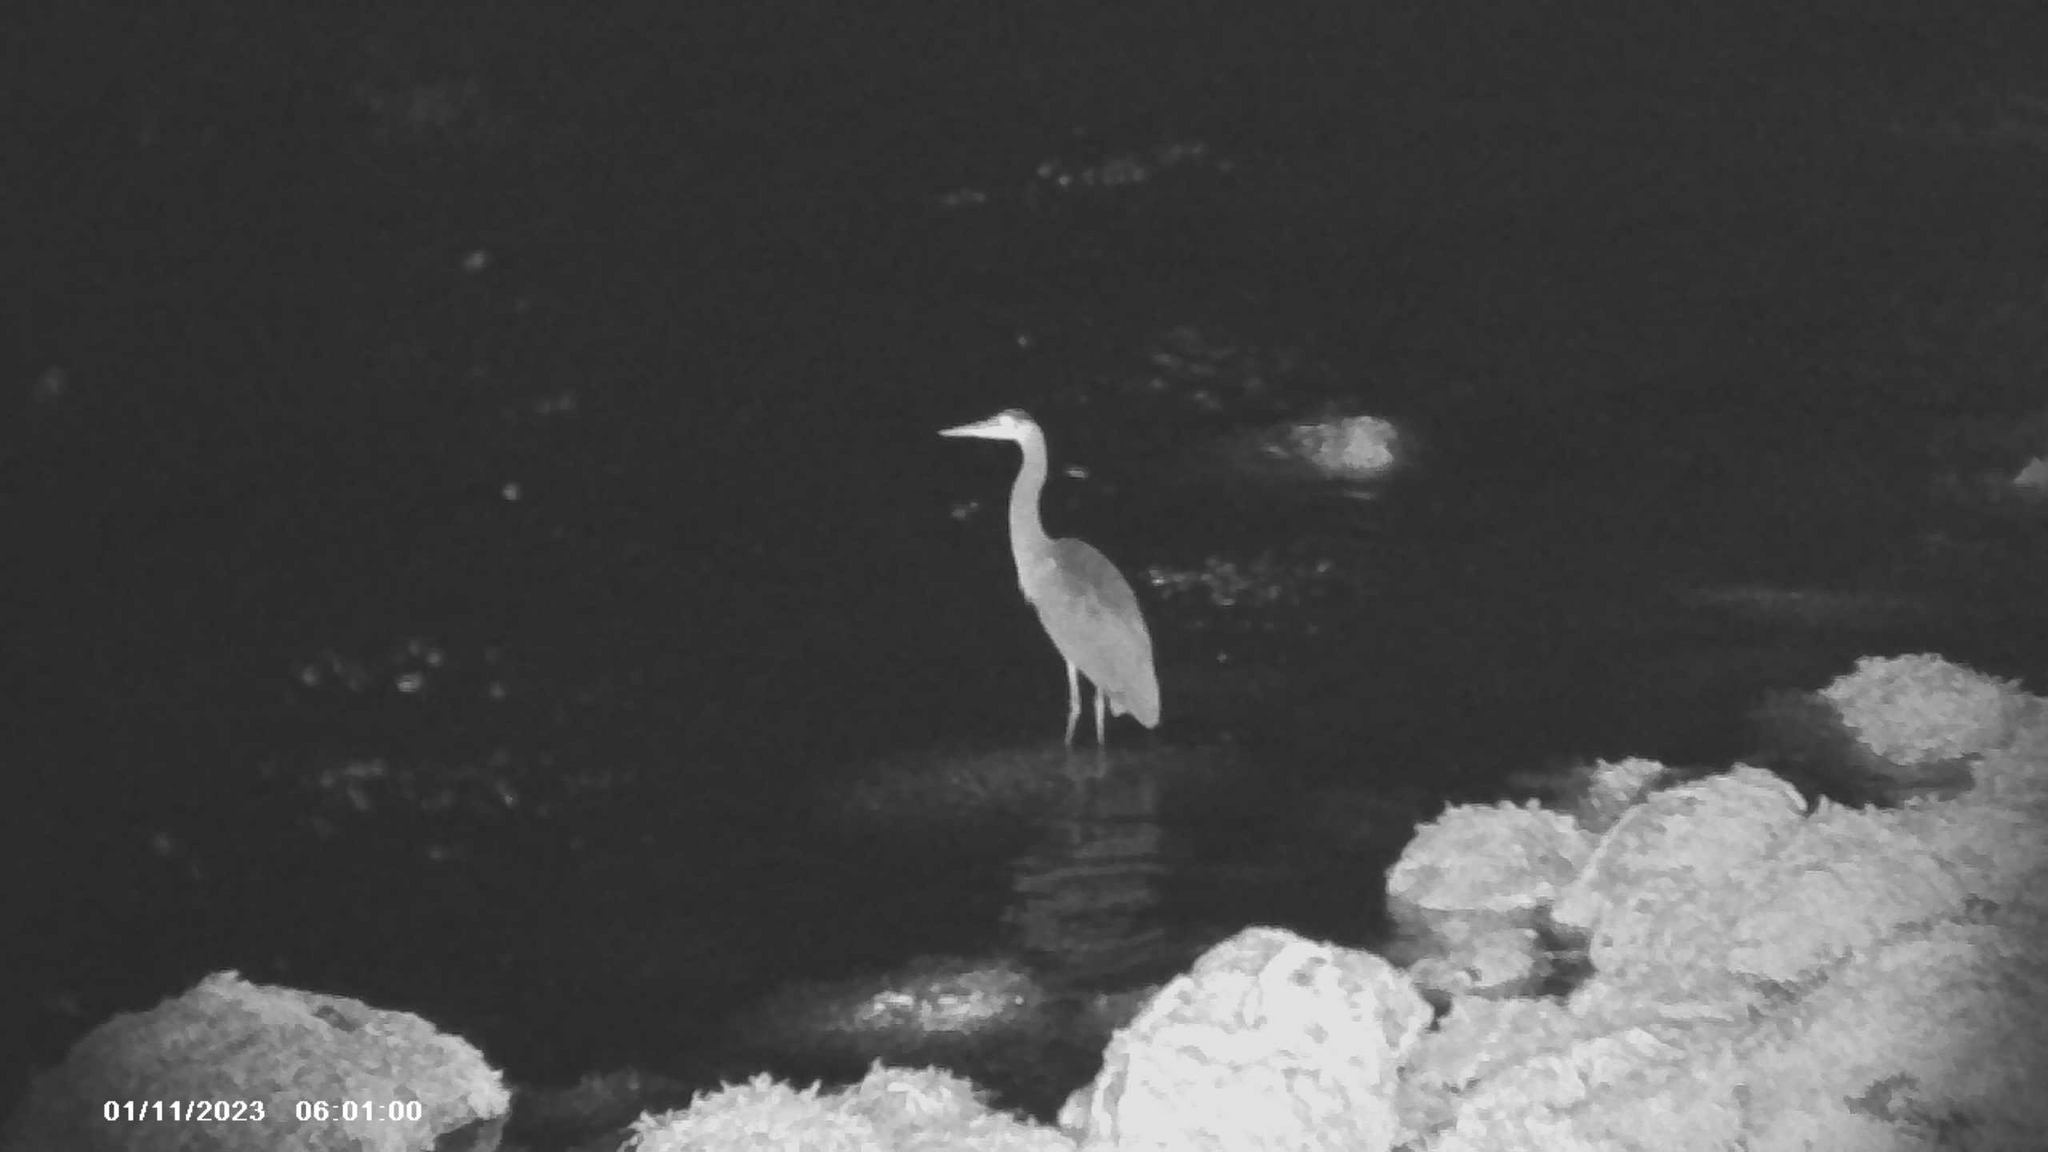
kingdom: Animalia
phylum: Chordata
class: Aves
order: Pelecaniformes
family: Ardeidae
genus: Ardea
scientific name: Ardea herodias
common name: Great blue heron
